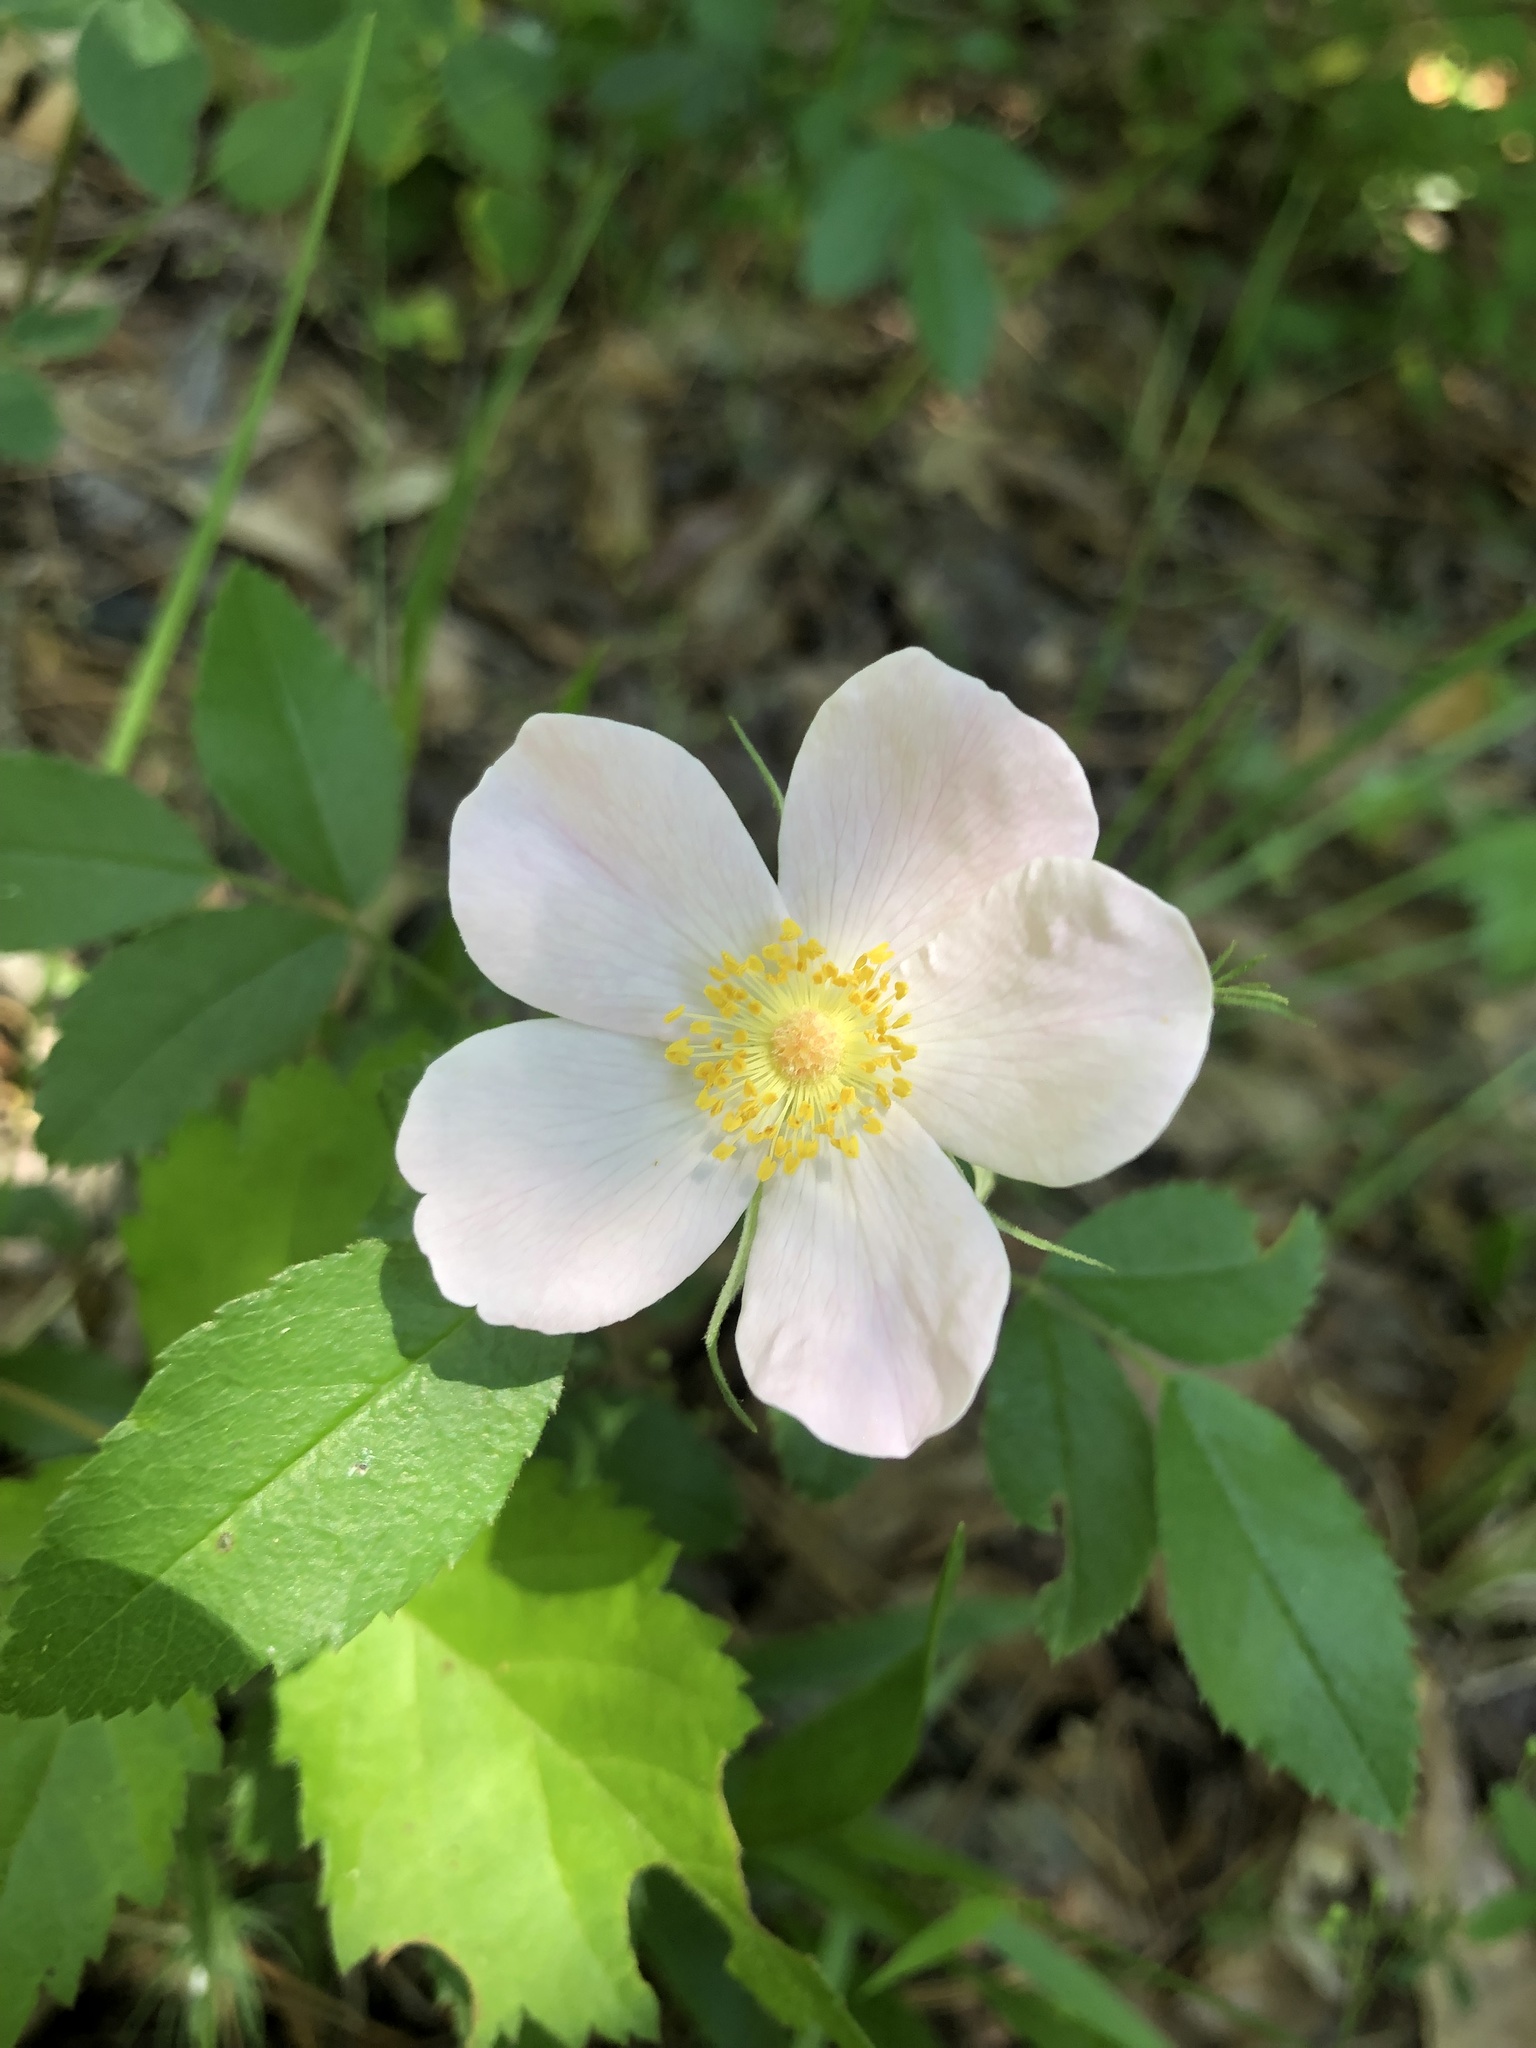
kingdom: Plantae
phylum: Tracheophyta
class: Magnoliopsida
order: Rosales
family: Rosaceae
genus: Rosa
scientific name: Rosa carolina
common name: Pasture rose
